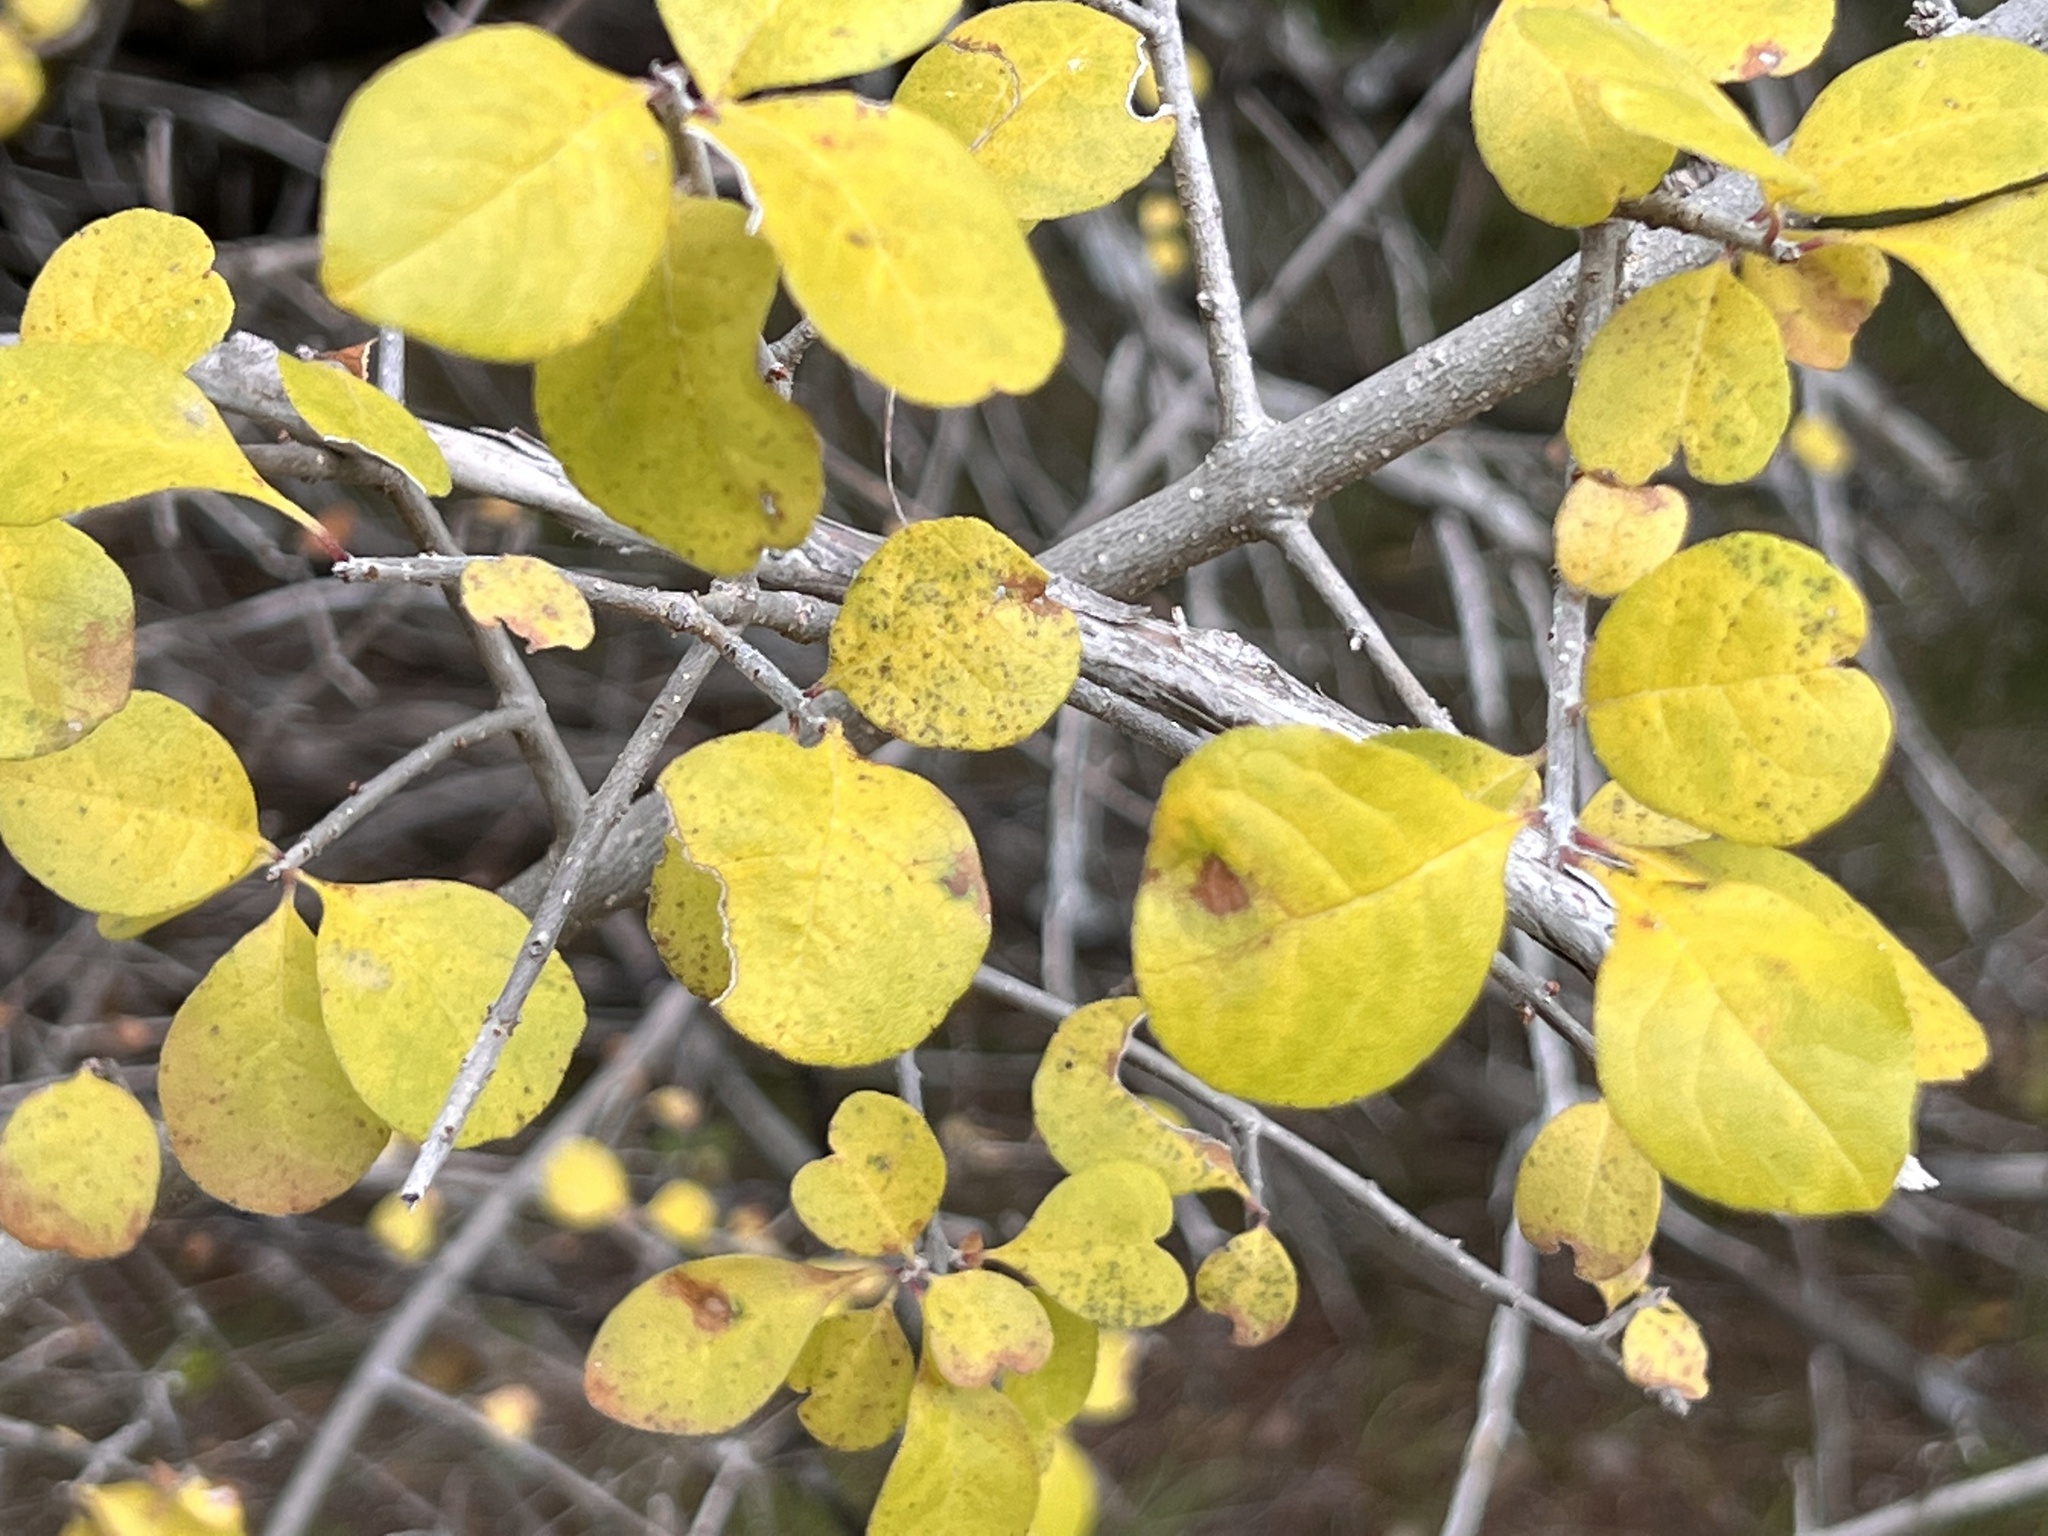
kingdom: Plantae
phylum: Tracheophyta
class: Magnoliopsida
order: Lamiales
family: Oleaceae
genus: Forestiera
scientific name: Forestiera pubescens
